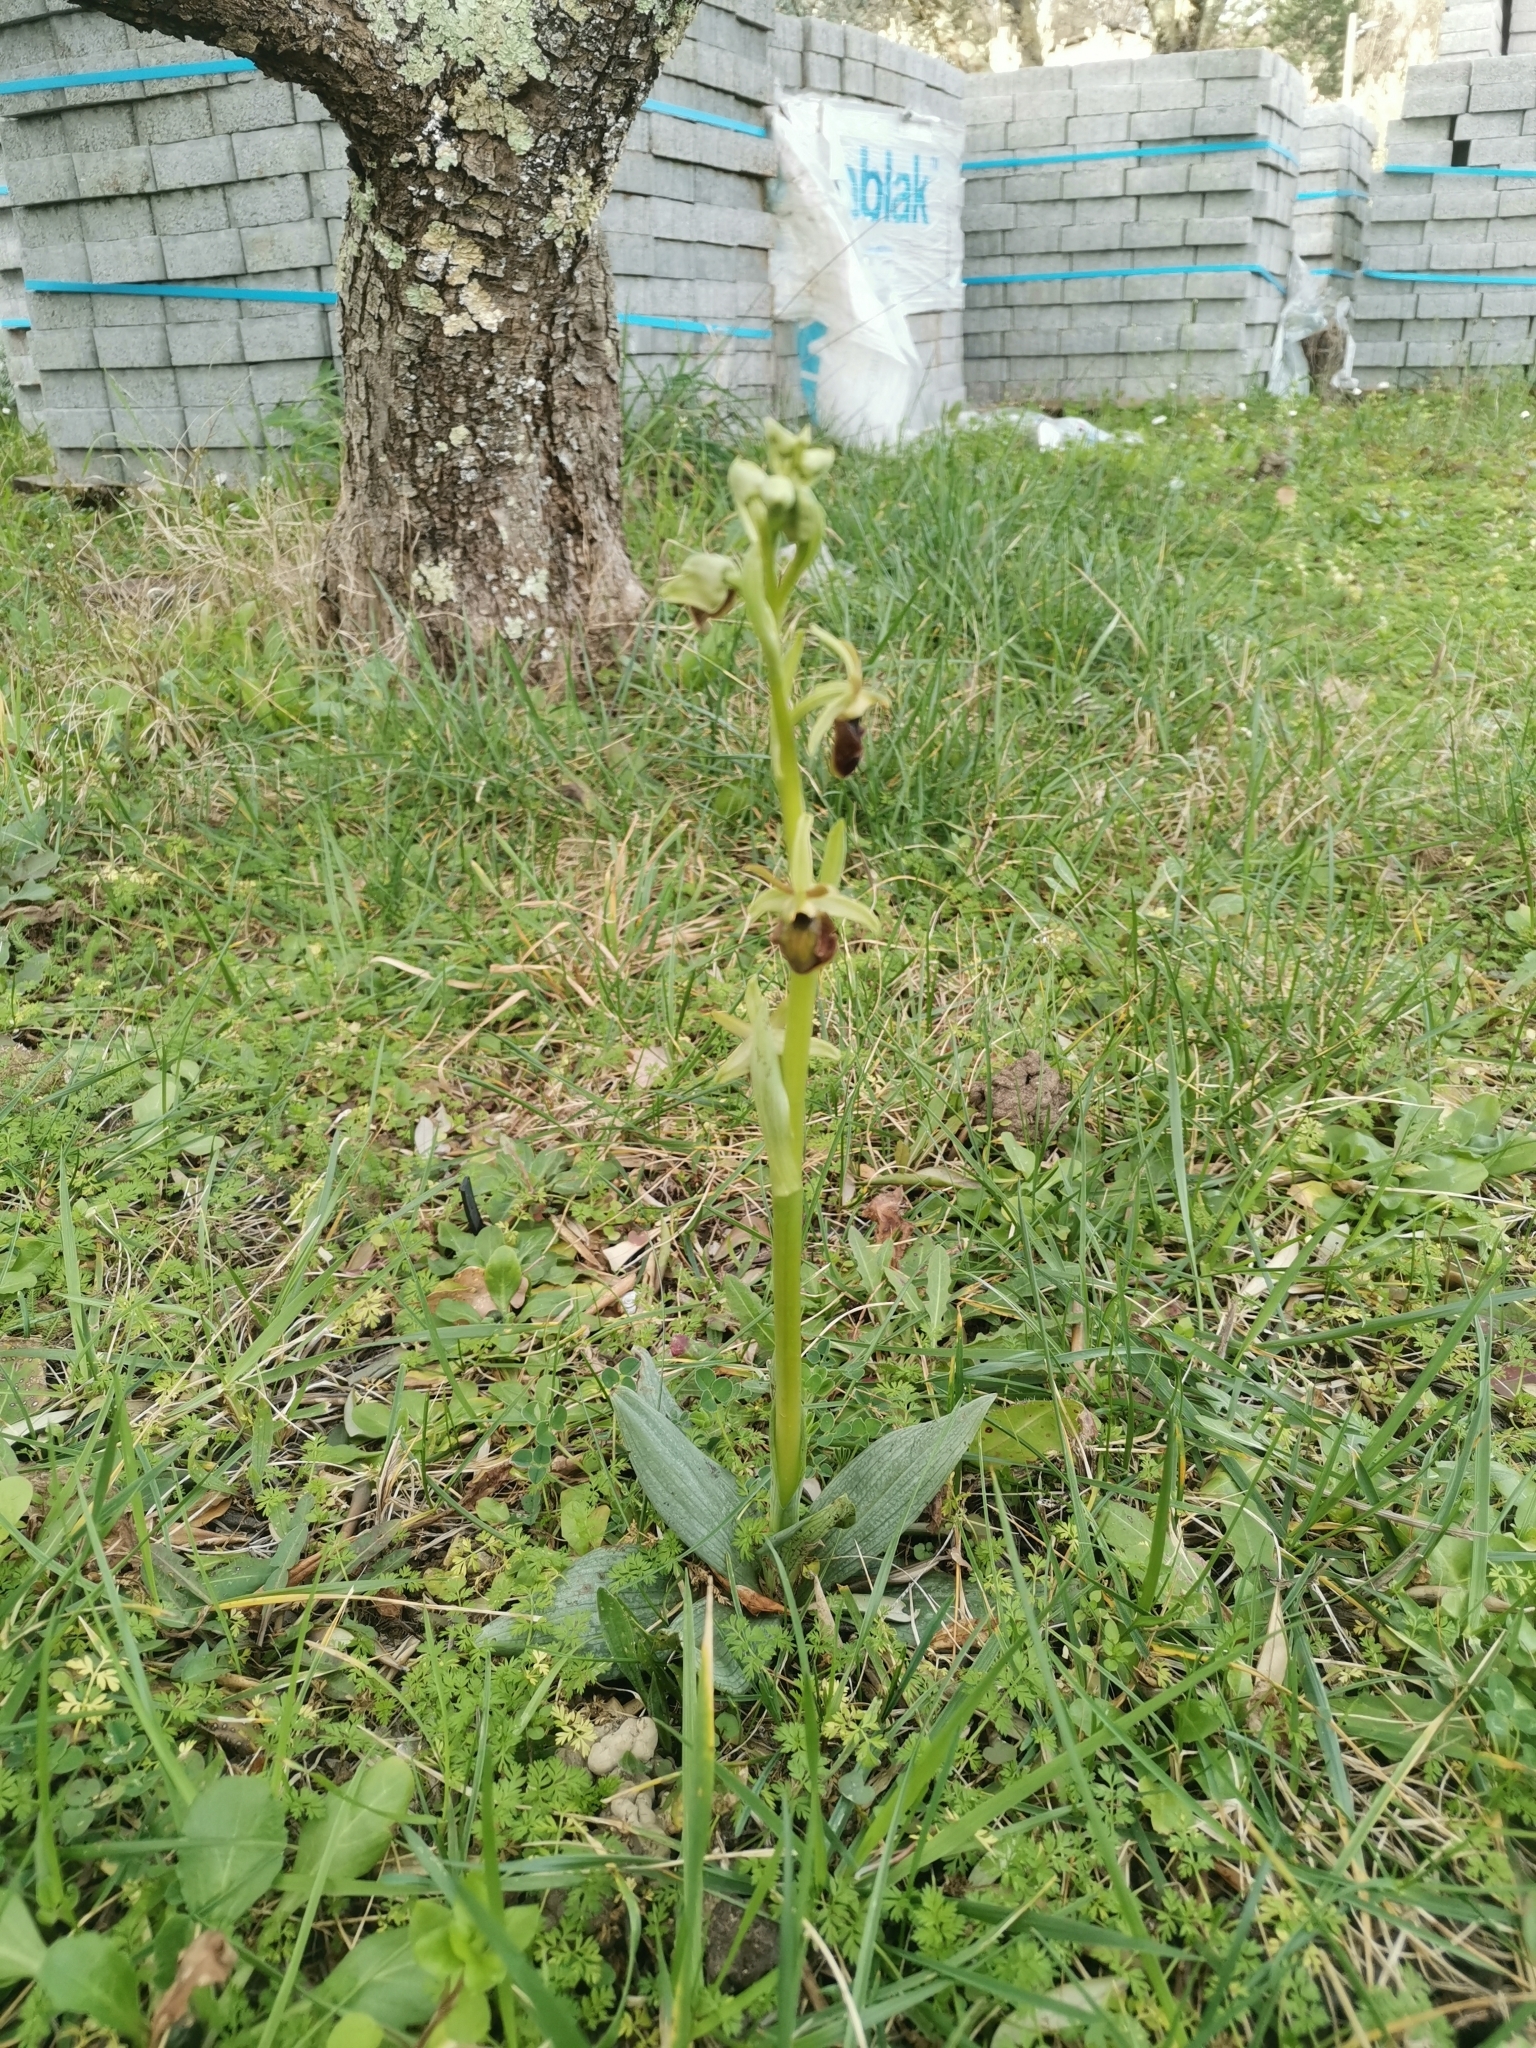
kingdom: Plantae
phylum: Tracheophyta
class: Liliopsida
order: Asparagales
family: Orchidaceae
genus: Ophrys
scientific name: Ophrys sphegodes
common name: Early spider-orchid
